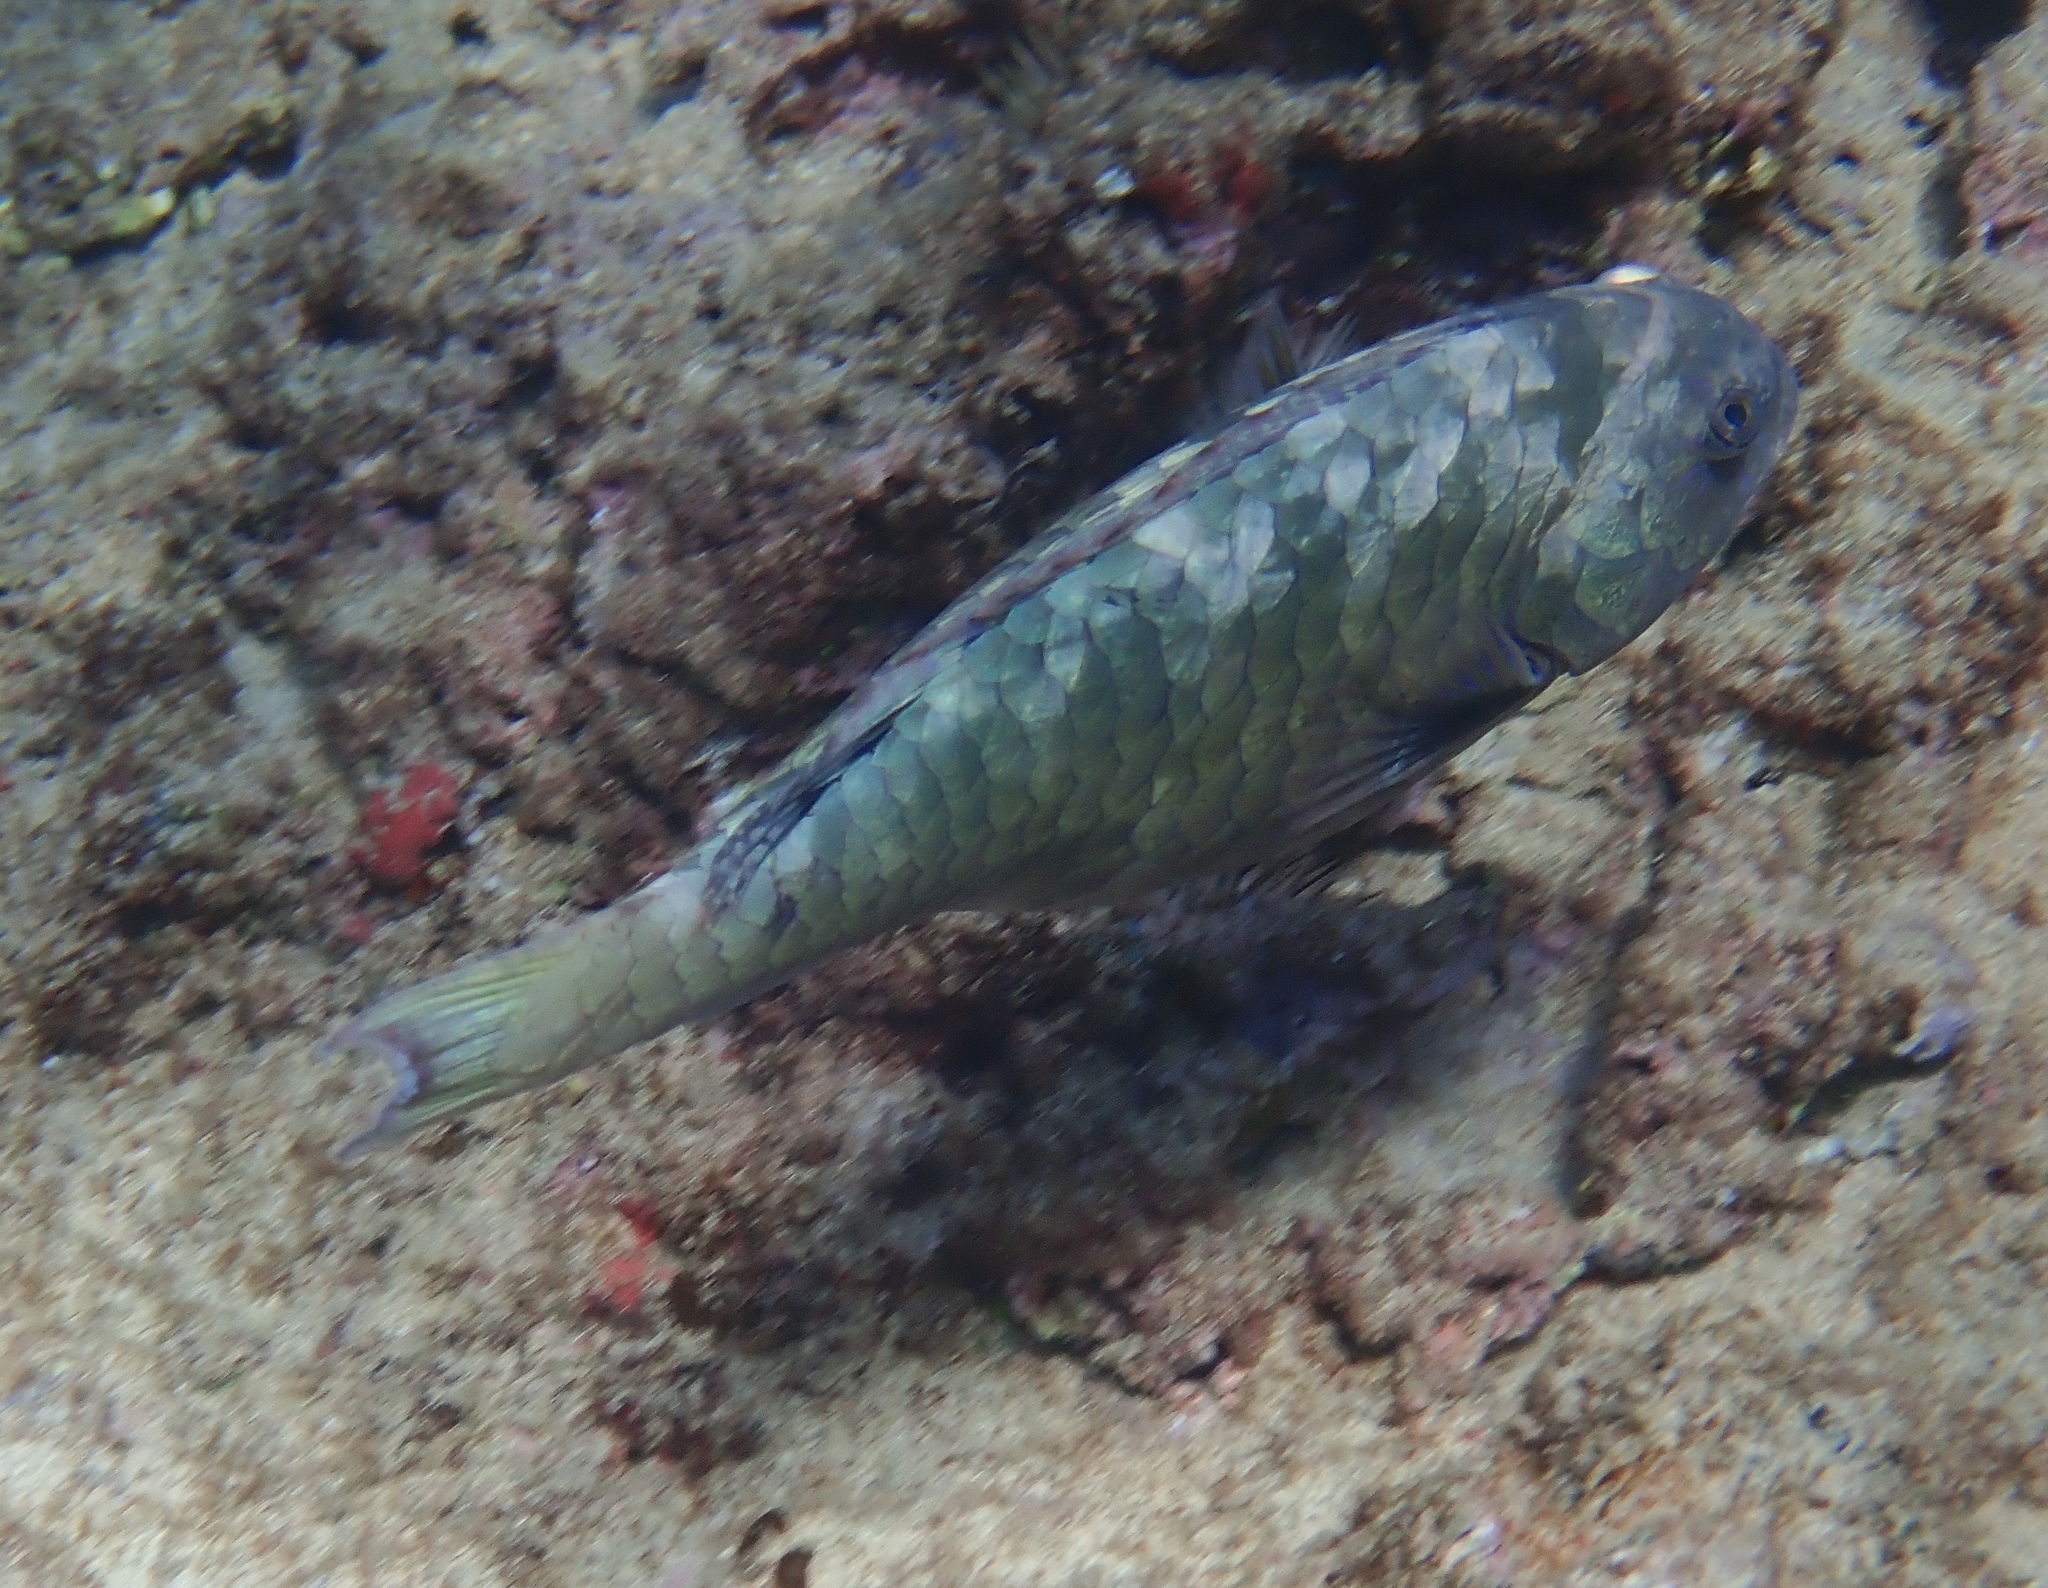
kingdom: Animalia
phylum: Chordata
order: Perciformes
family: Scaridae
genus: Calotomus
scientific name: Calotomus carolinus
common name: Bucktooth
